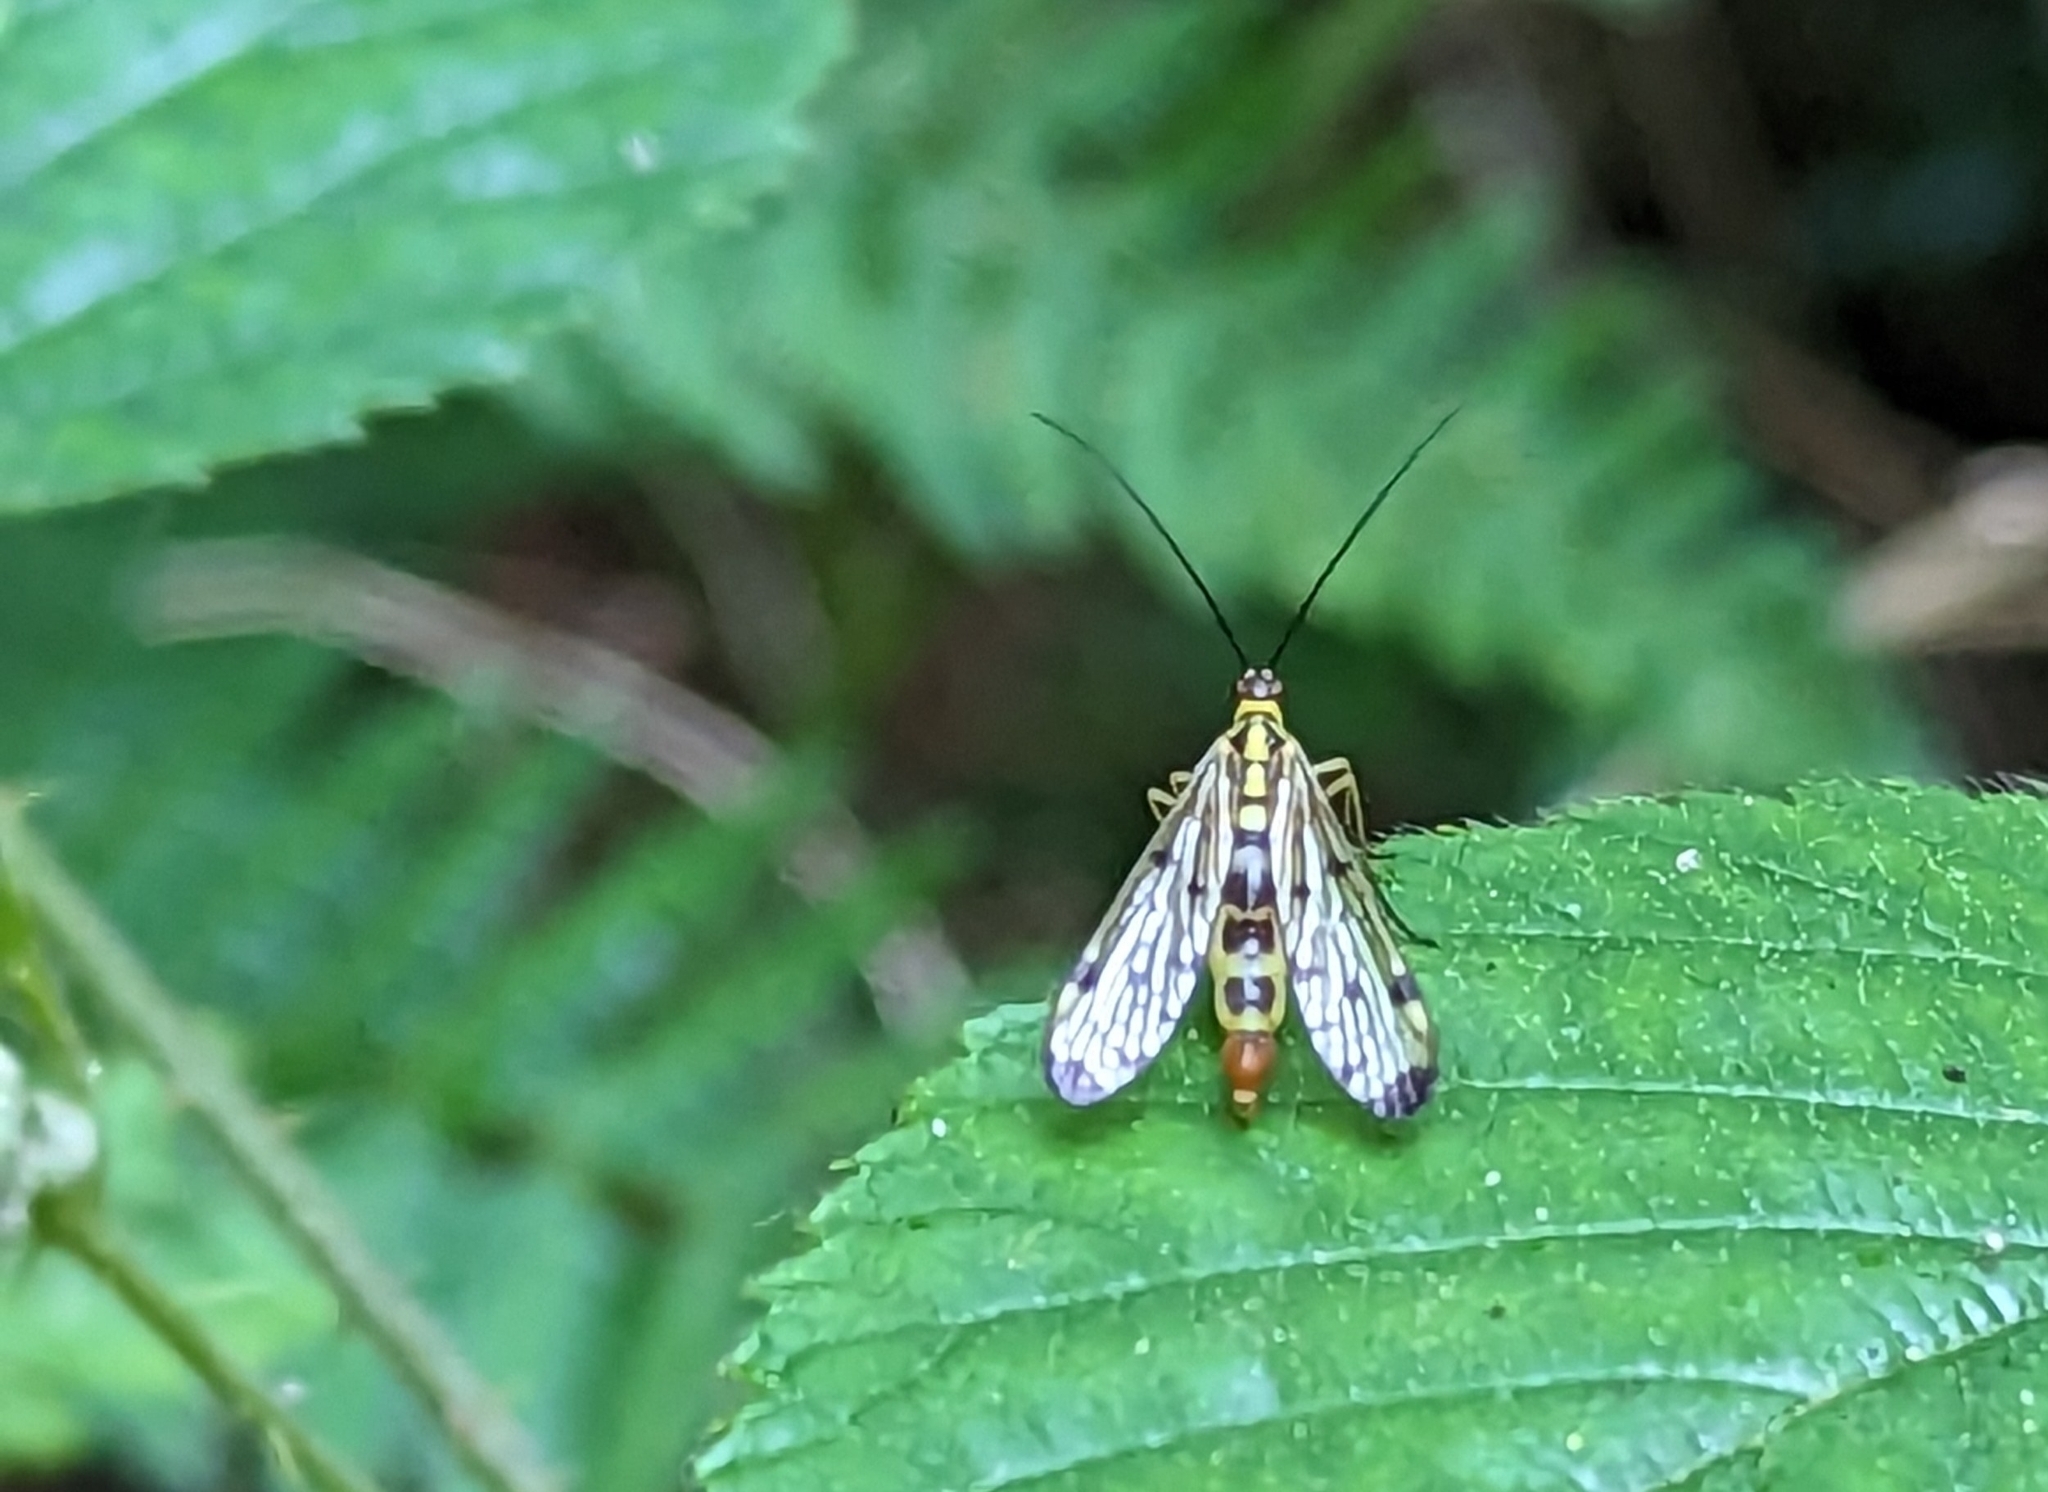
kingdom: Animalia
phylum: Arthropoda
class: Insecta
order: Mecoptera
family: Panorpidae
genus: Panorpa
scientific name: Panorpa germanica
